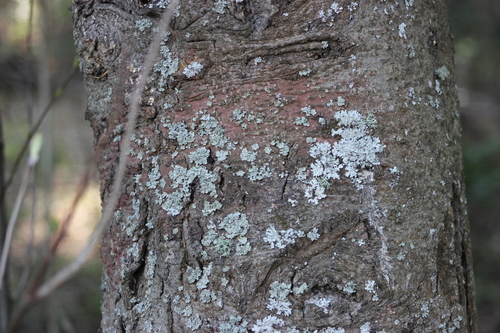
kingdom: Fungi
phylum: Ascomycota
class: Lecanoromycetes
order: Lecanorales
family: Parmeliaceae
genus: Parmelia
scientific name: Parmelia sulcata
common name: Netted shield lichen
